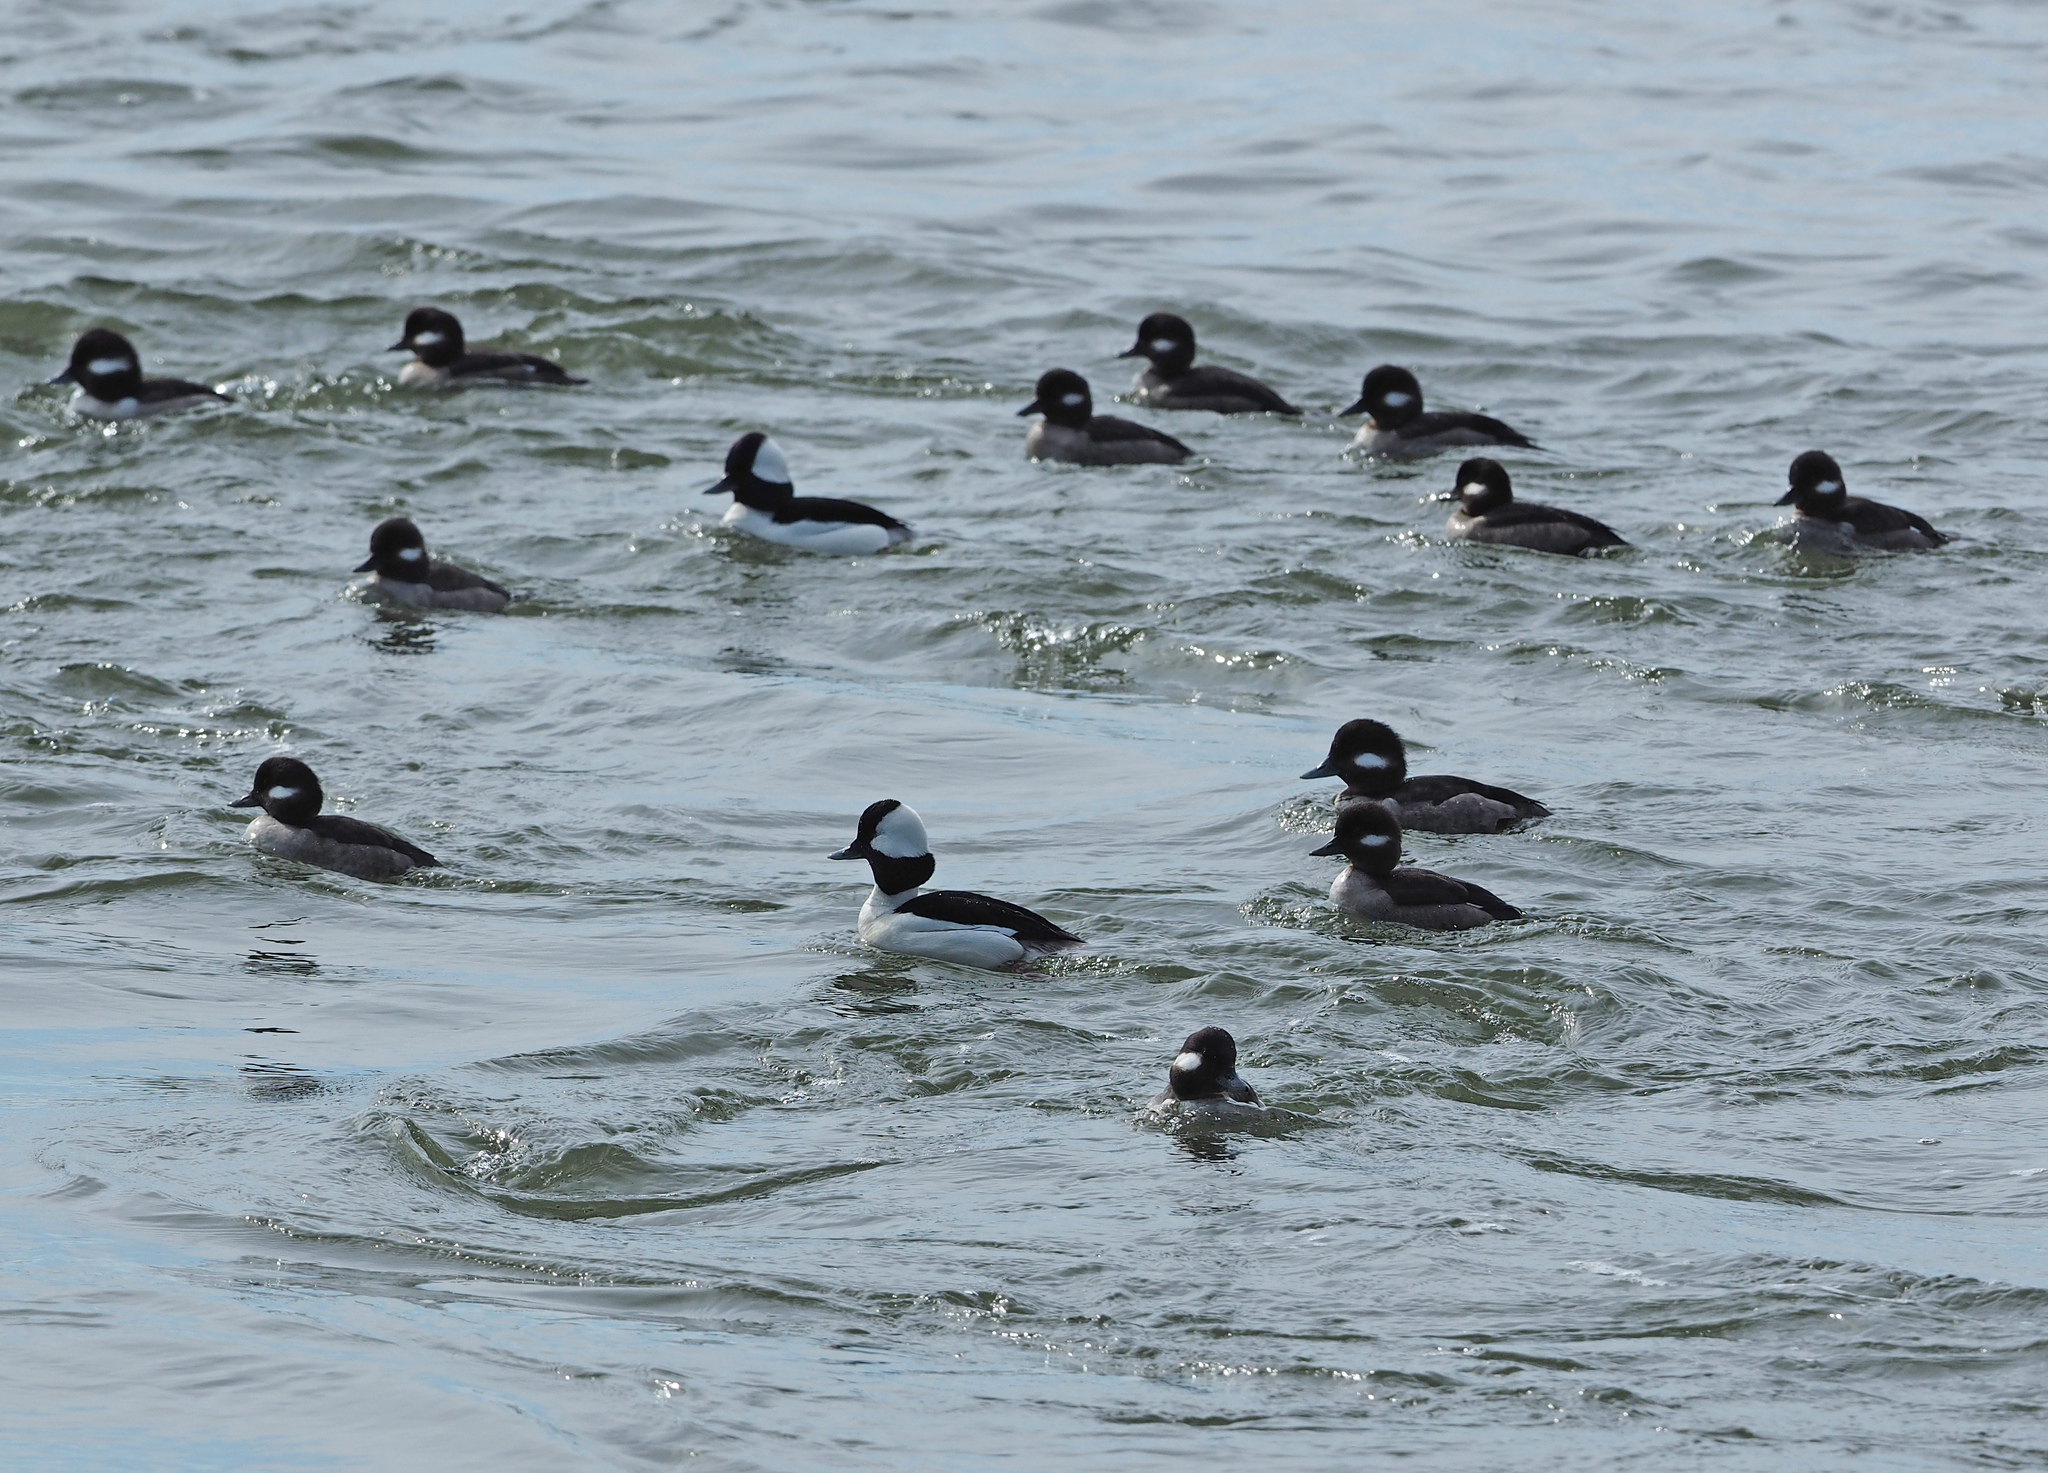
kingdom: Animalia
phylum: Chordata
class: Aves
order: Anseriformes
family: Anatidae
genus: Bucephala
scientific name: Bucephala albeola
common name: Bufflehead
